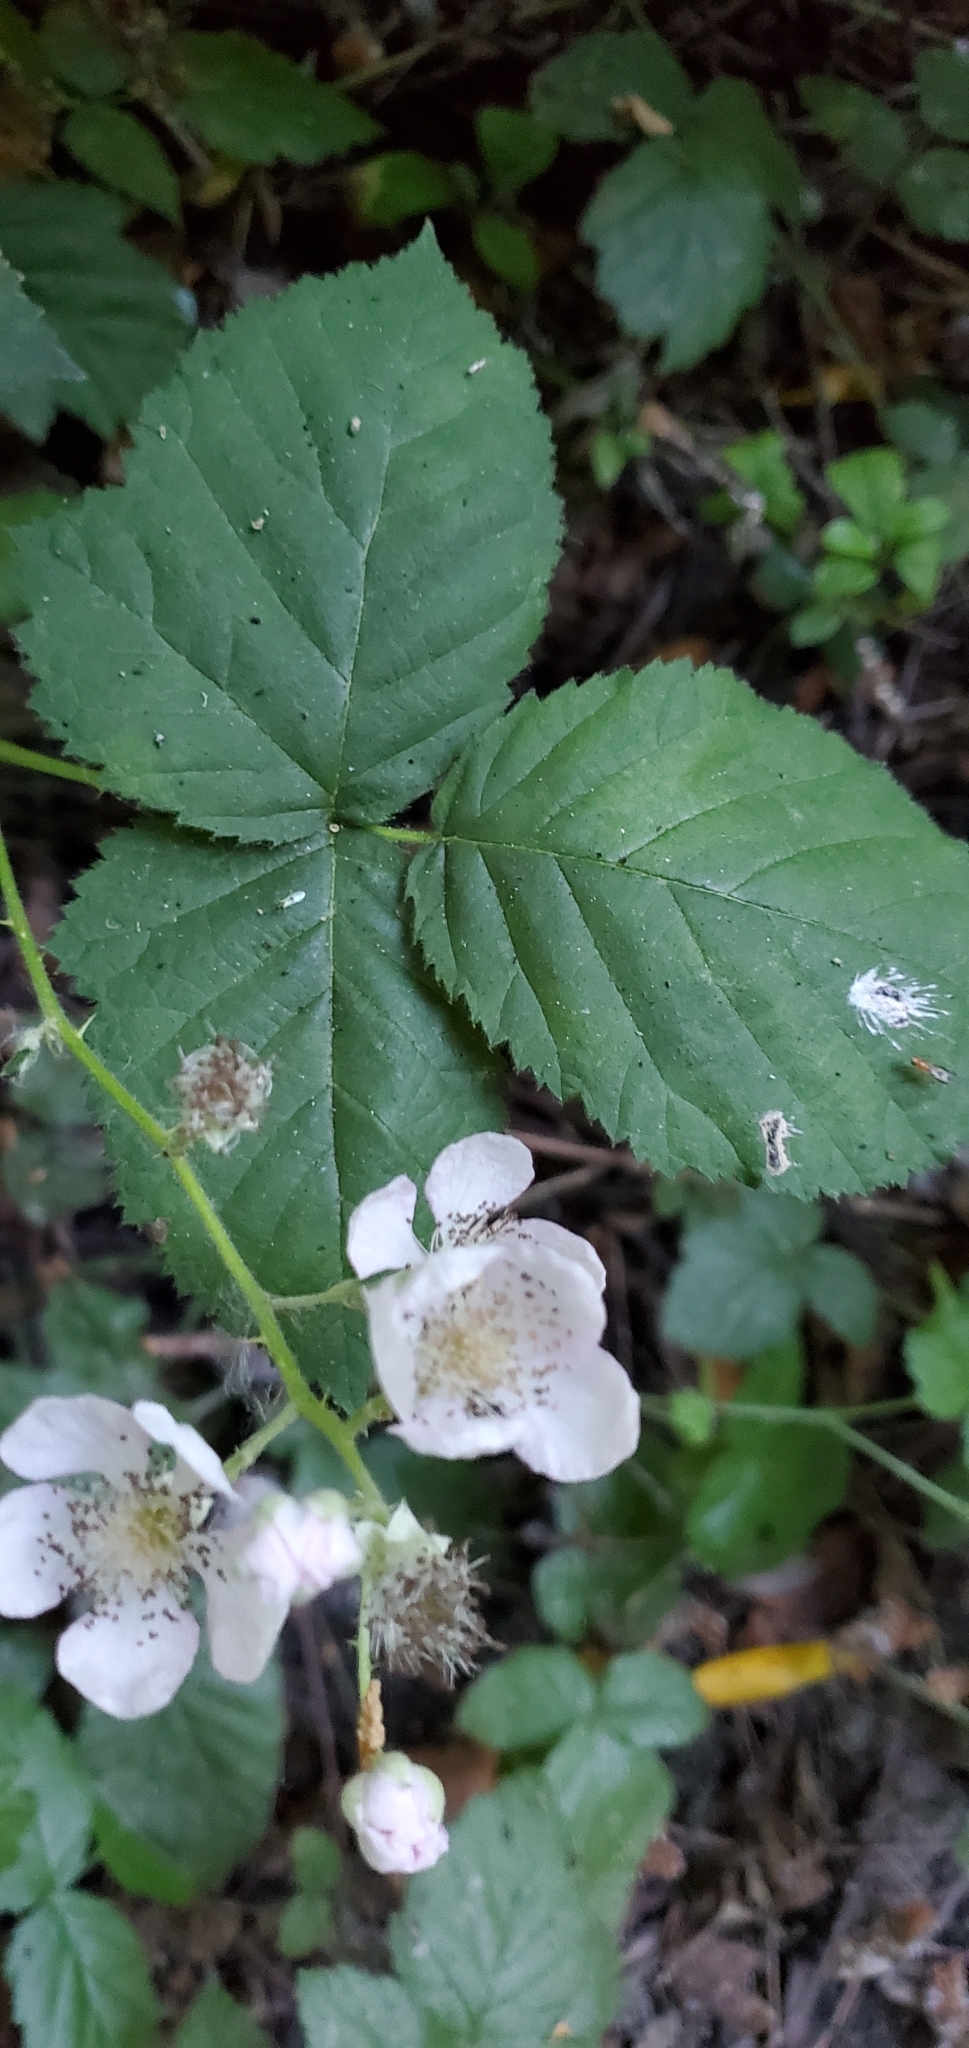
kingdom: Plantae
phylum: Tracheophyta
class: Magnoliopsida
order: Rosales
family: Rosaceae
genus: Rubus
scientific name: Rubus armeniacus
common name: Himalayan blackberry
